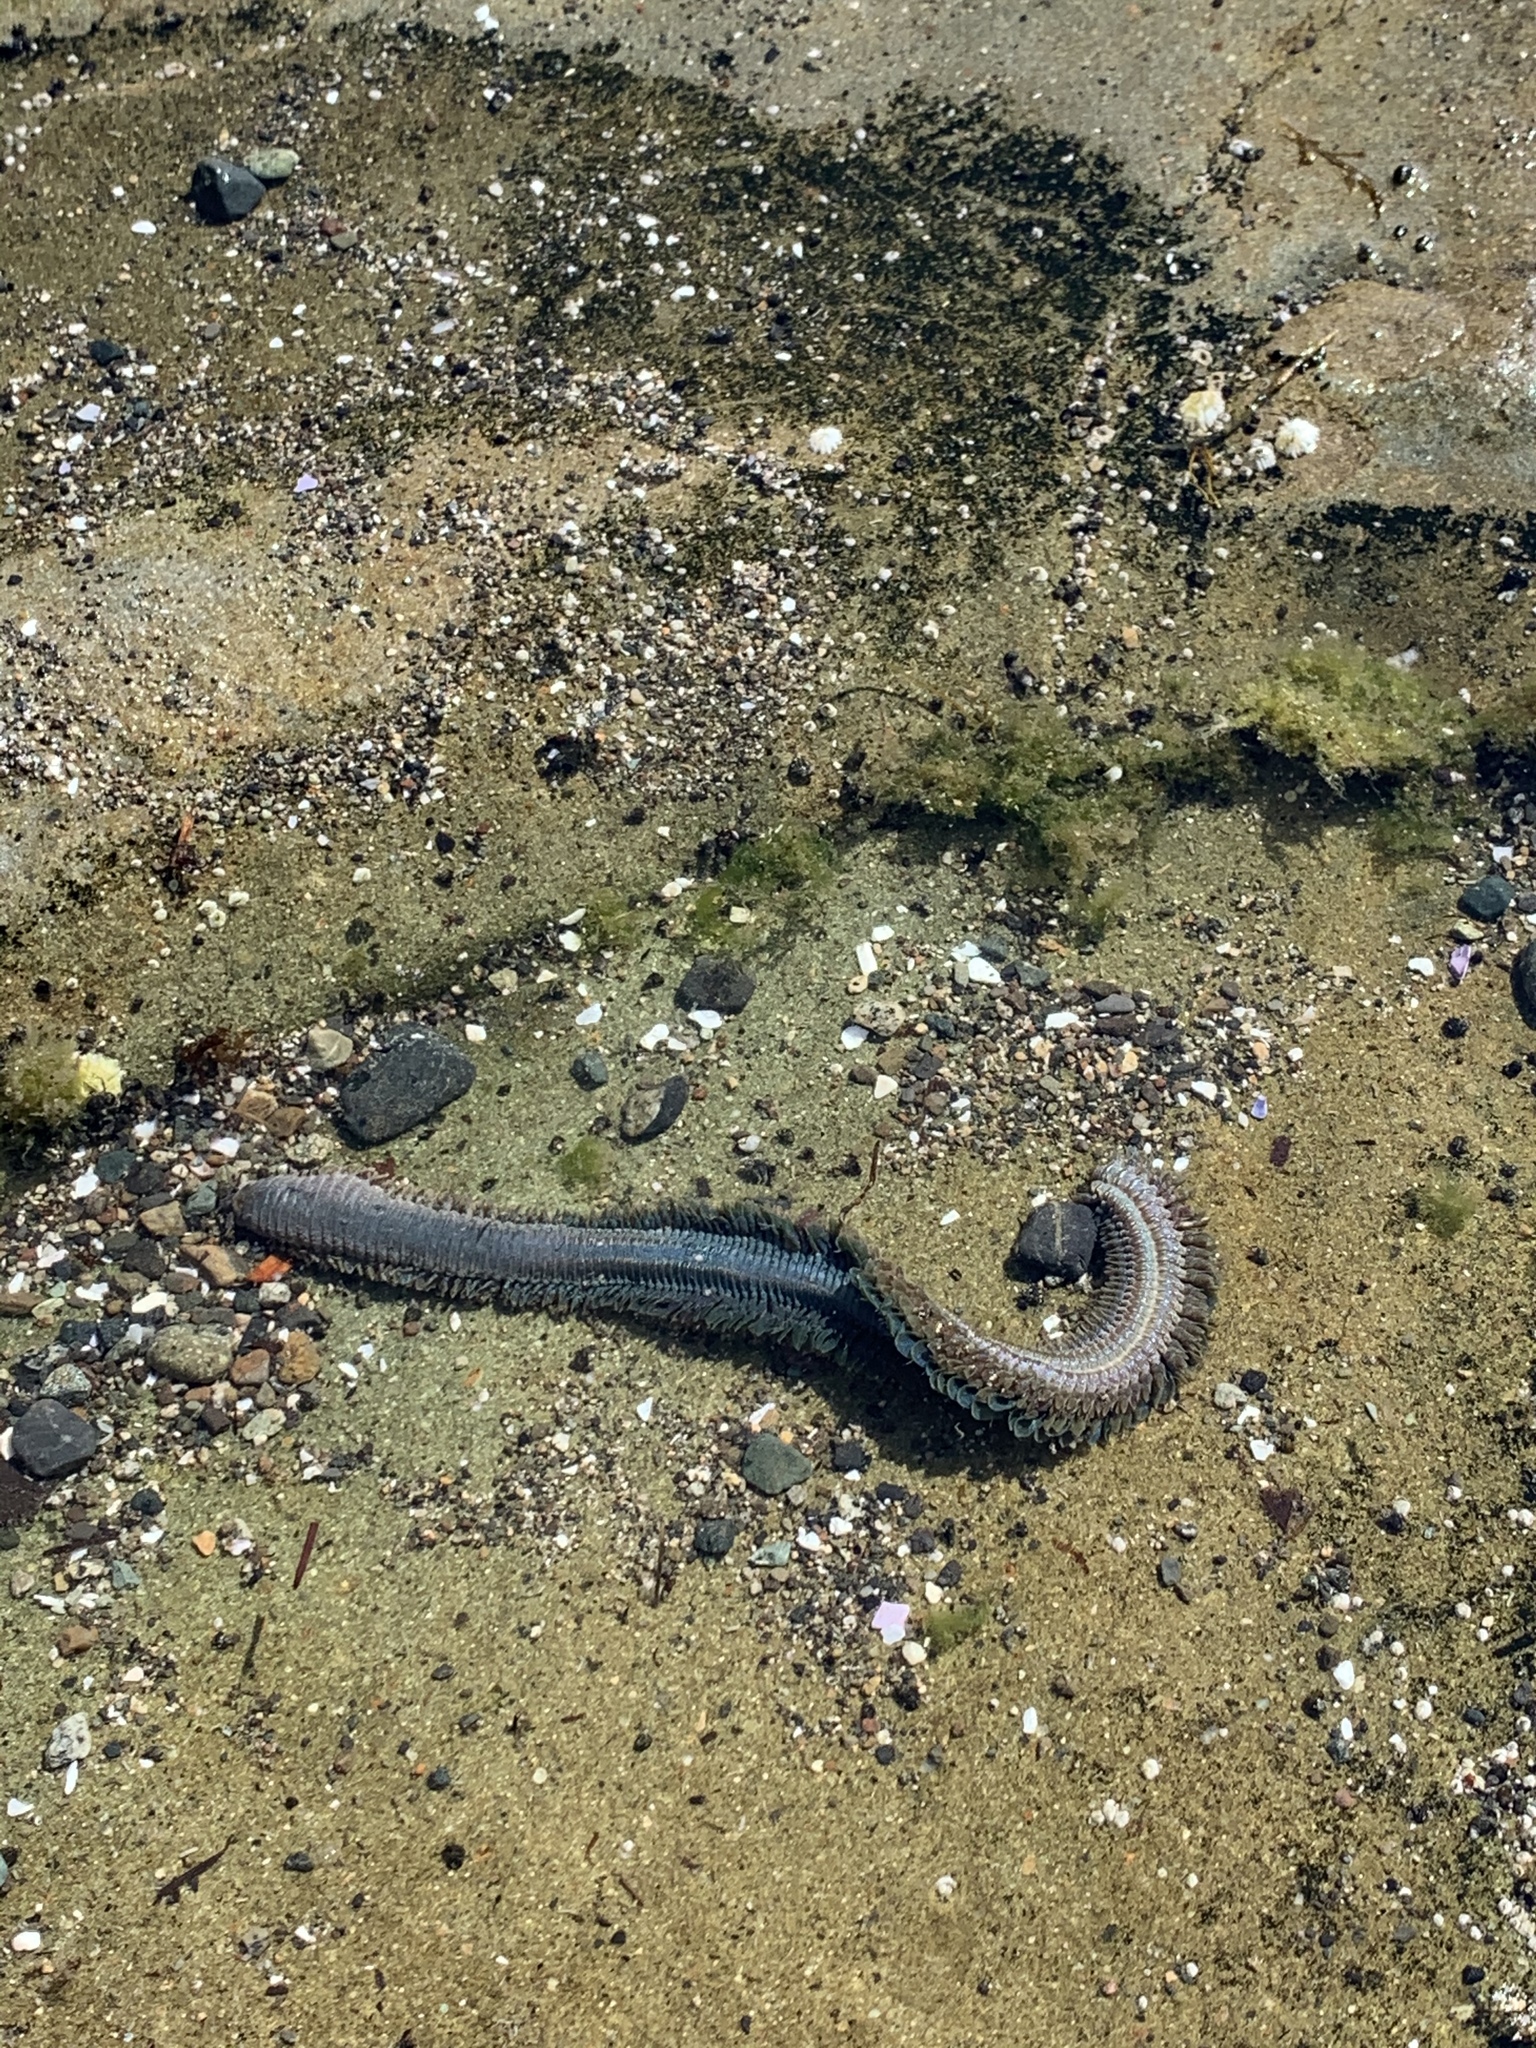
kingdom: Animalia
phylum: Annelida
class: Polychaeta
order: Phyllodocida
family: Nereididae
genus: Alitta
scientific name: Alitta williami
